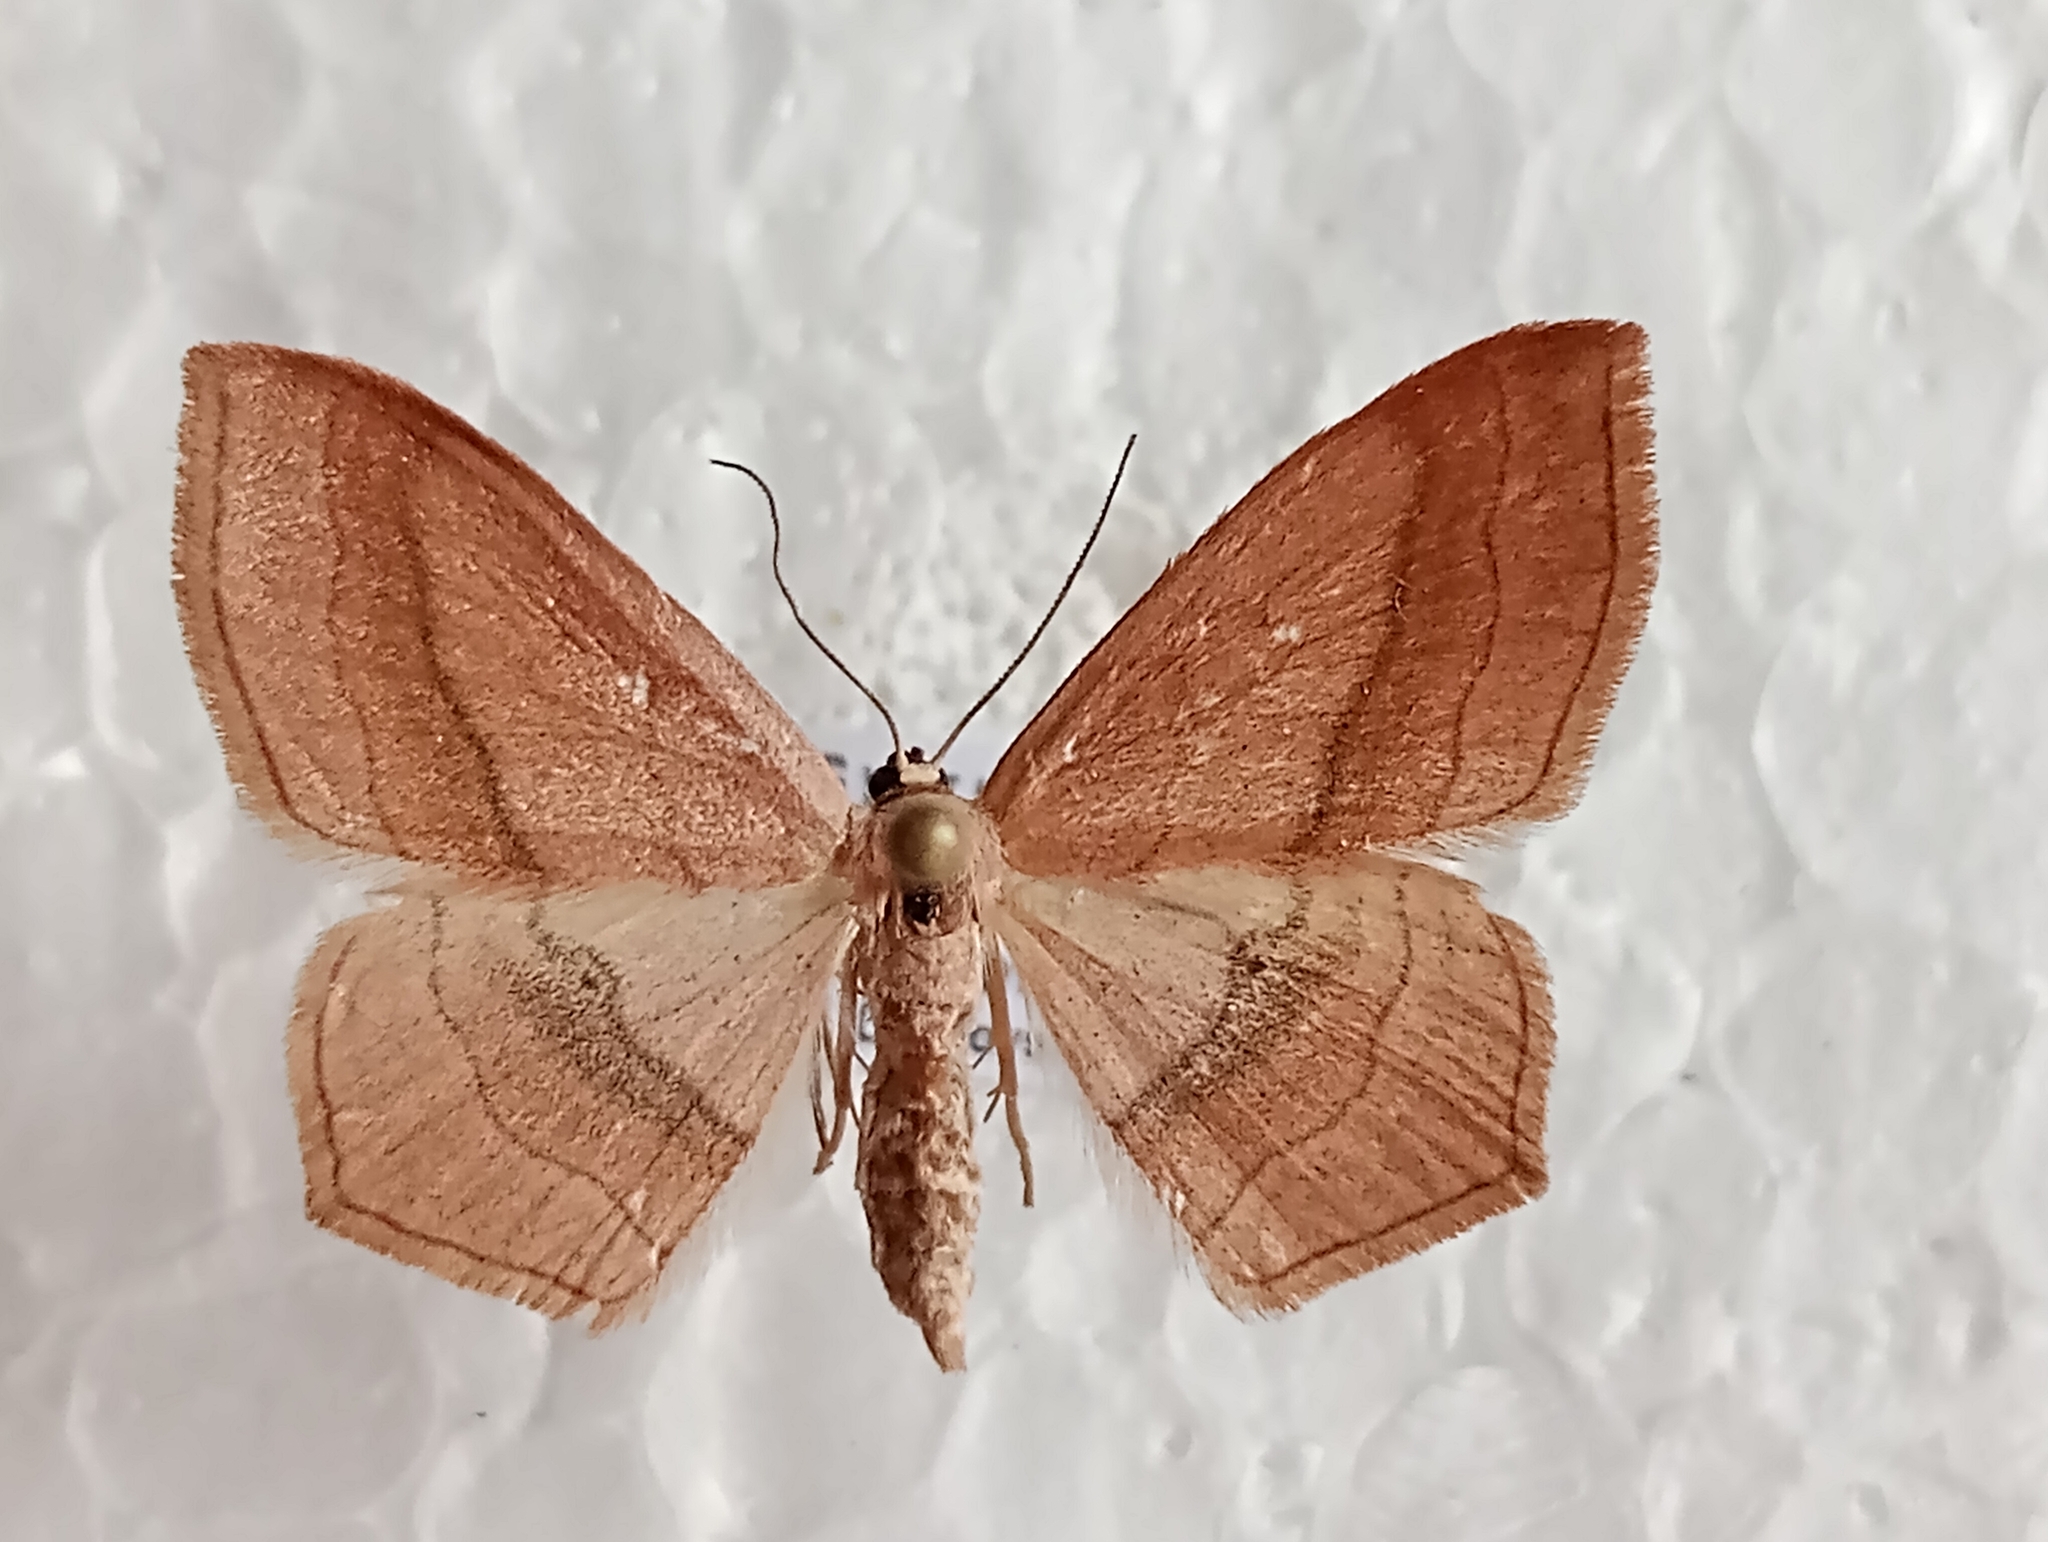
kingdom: Animalia
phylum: Arthropoda
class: Insecta
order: Lepidoptera
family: Geometridae
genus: Scopula
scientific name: Scopula imitaria
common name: Small blood-vein
